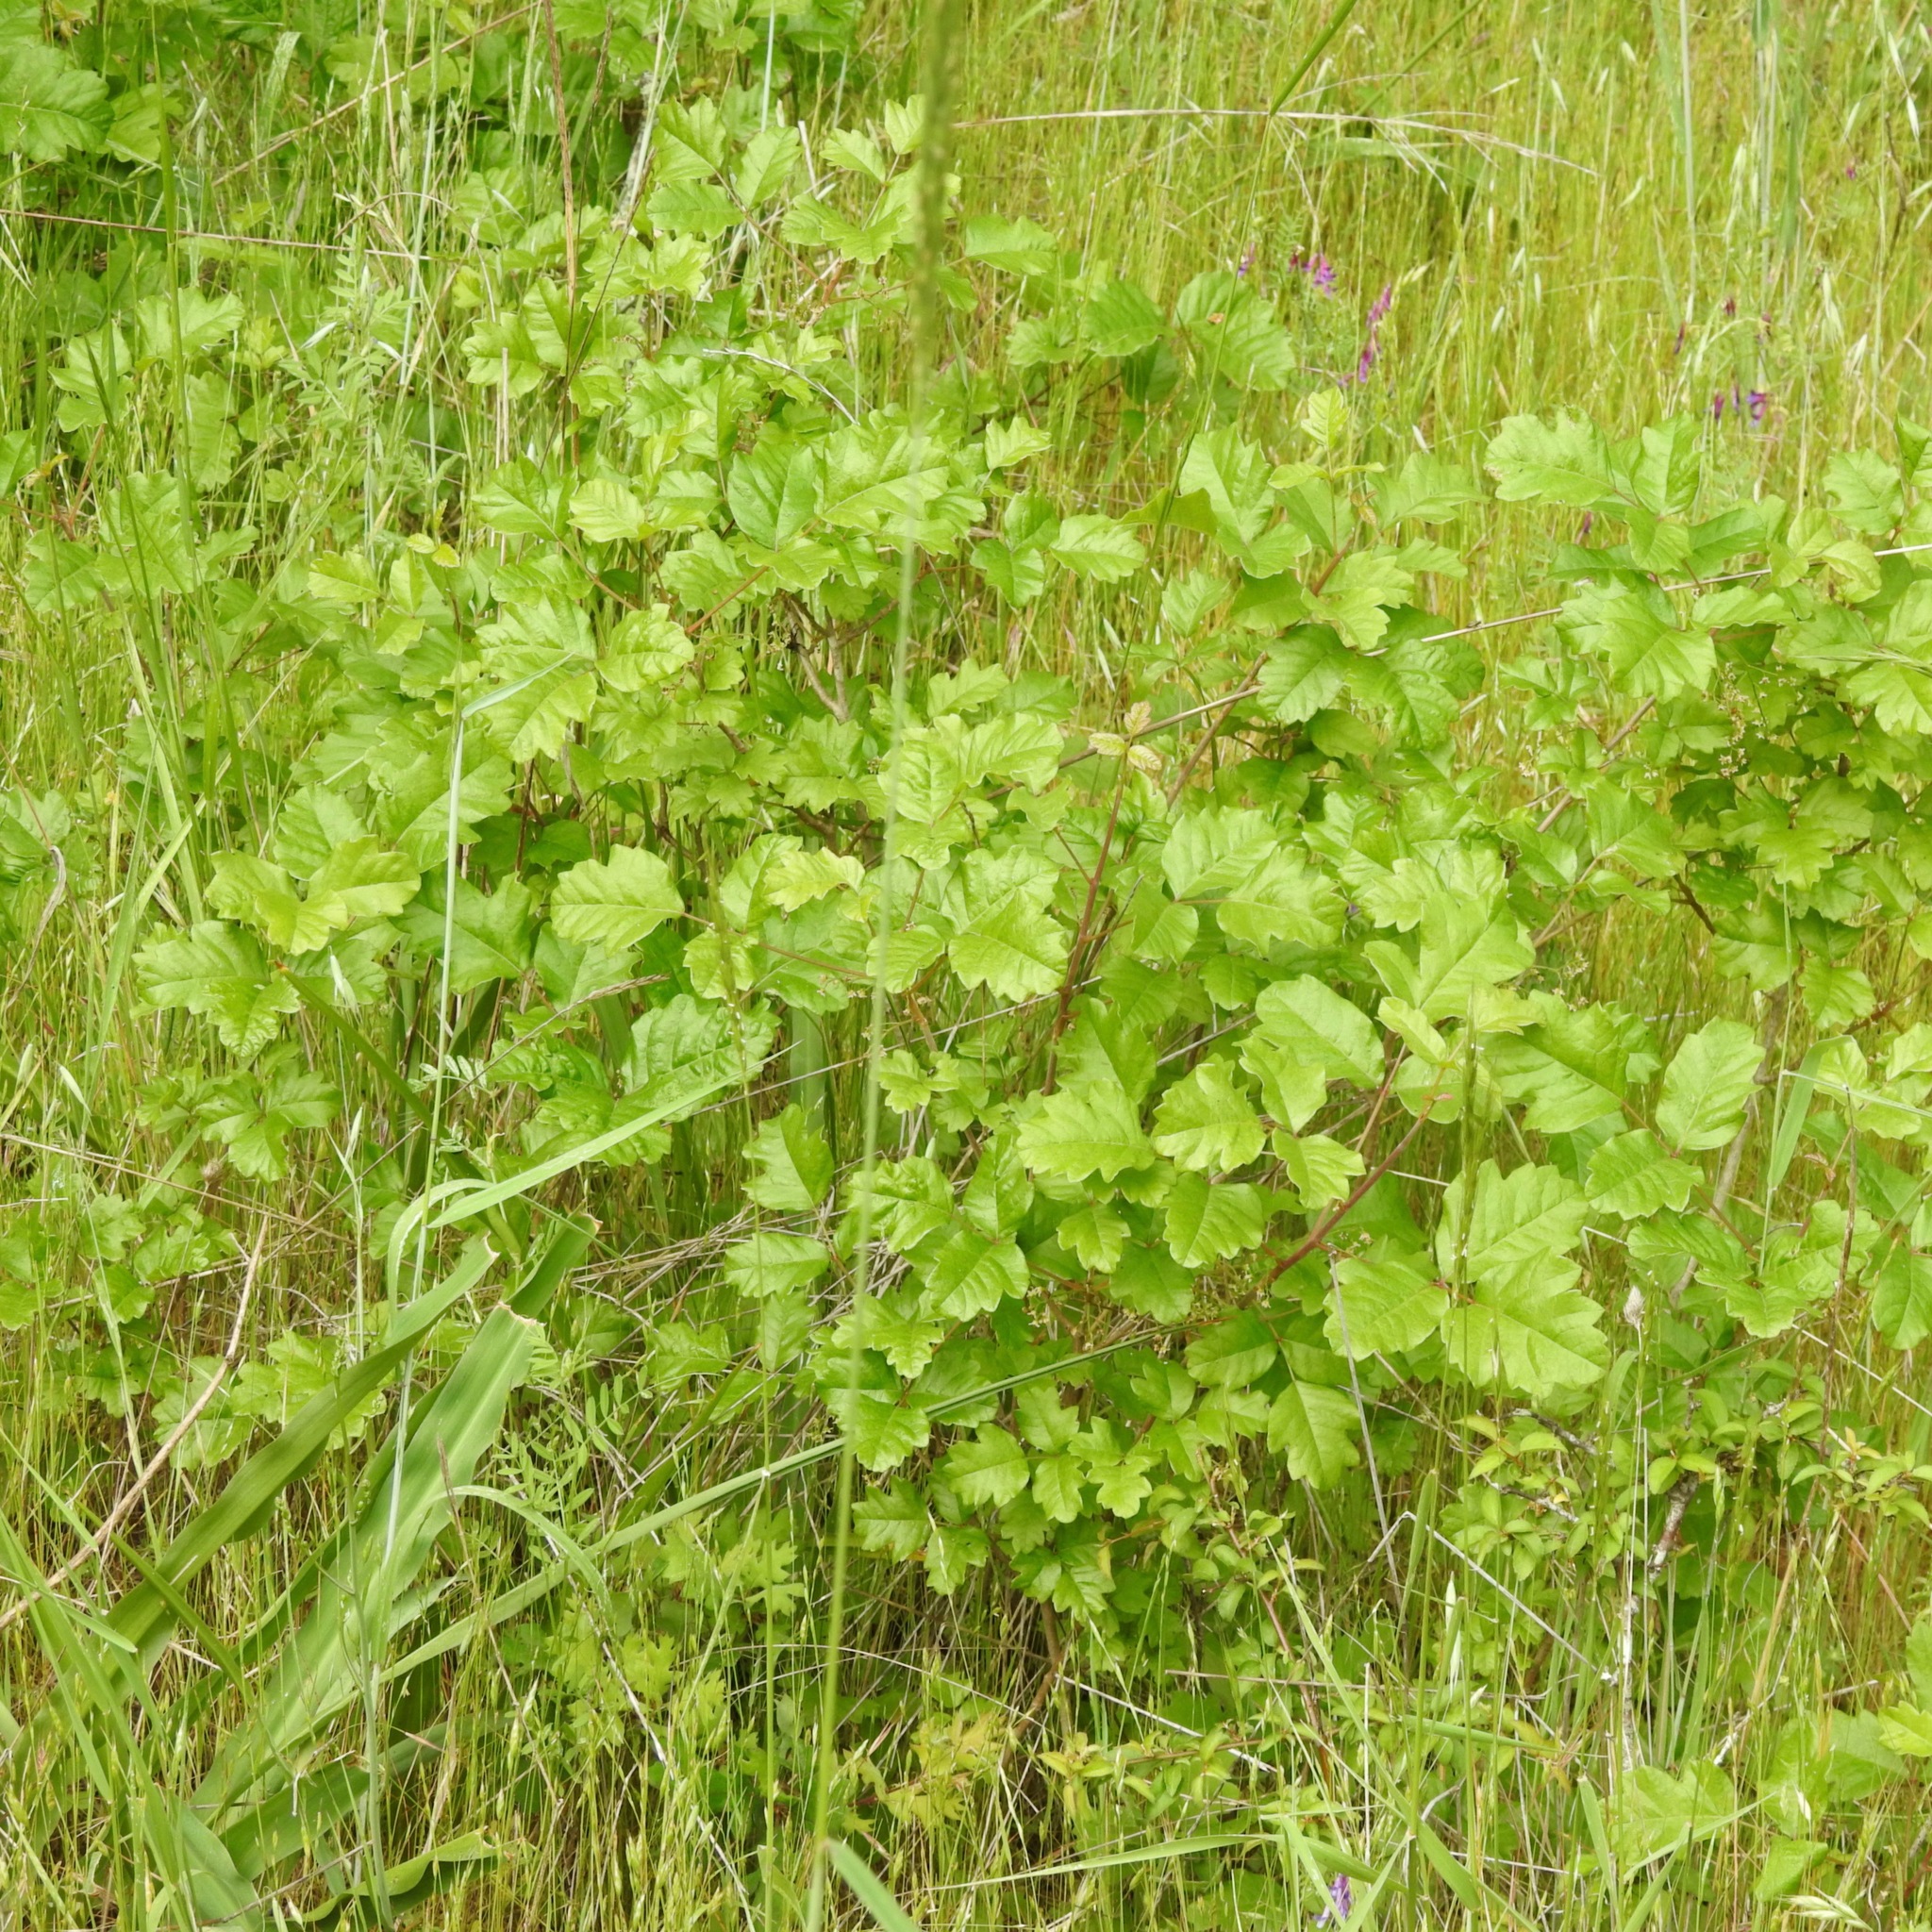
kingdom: Plantae
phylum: Tracheophyta
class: Magnoliopsida
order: Sapindales
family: Anacardiaceae
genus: Toxicodendron
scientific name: Toxicodendron diversilobum
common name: Pacific poison-oak
